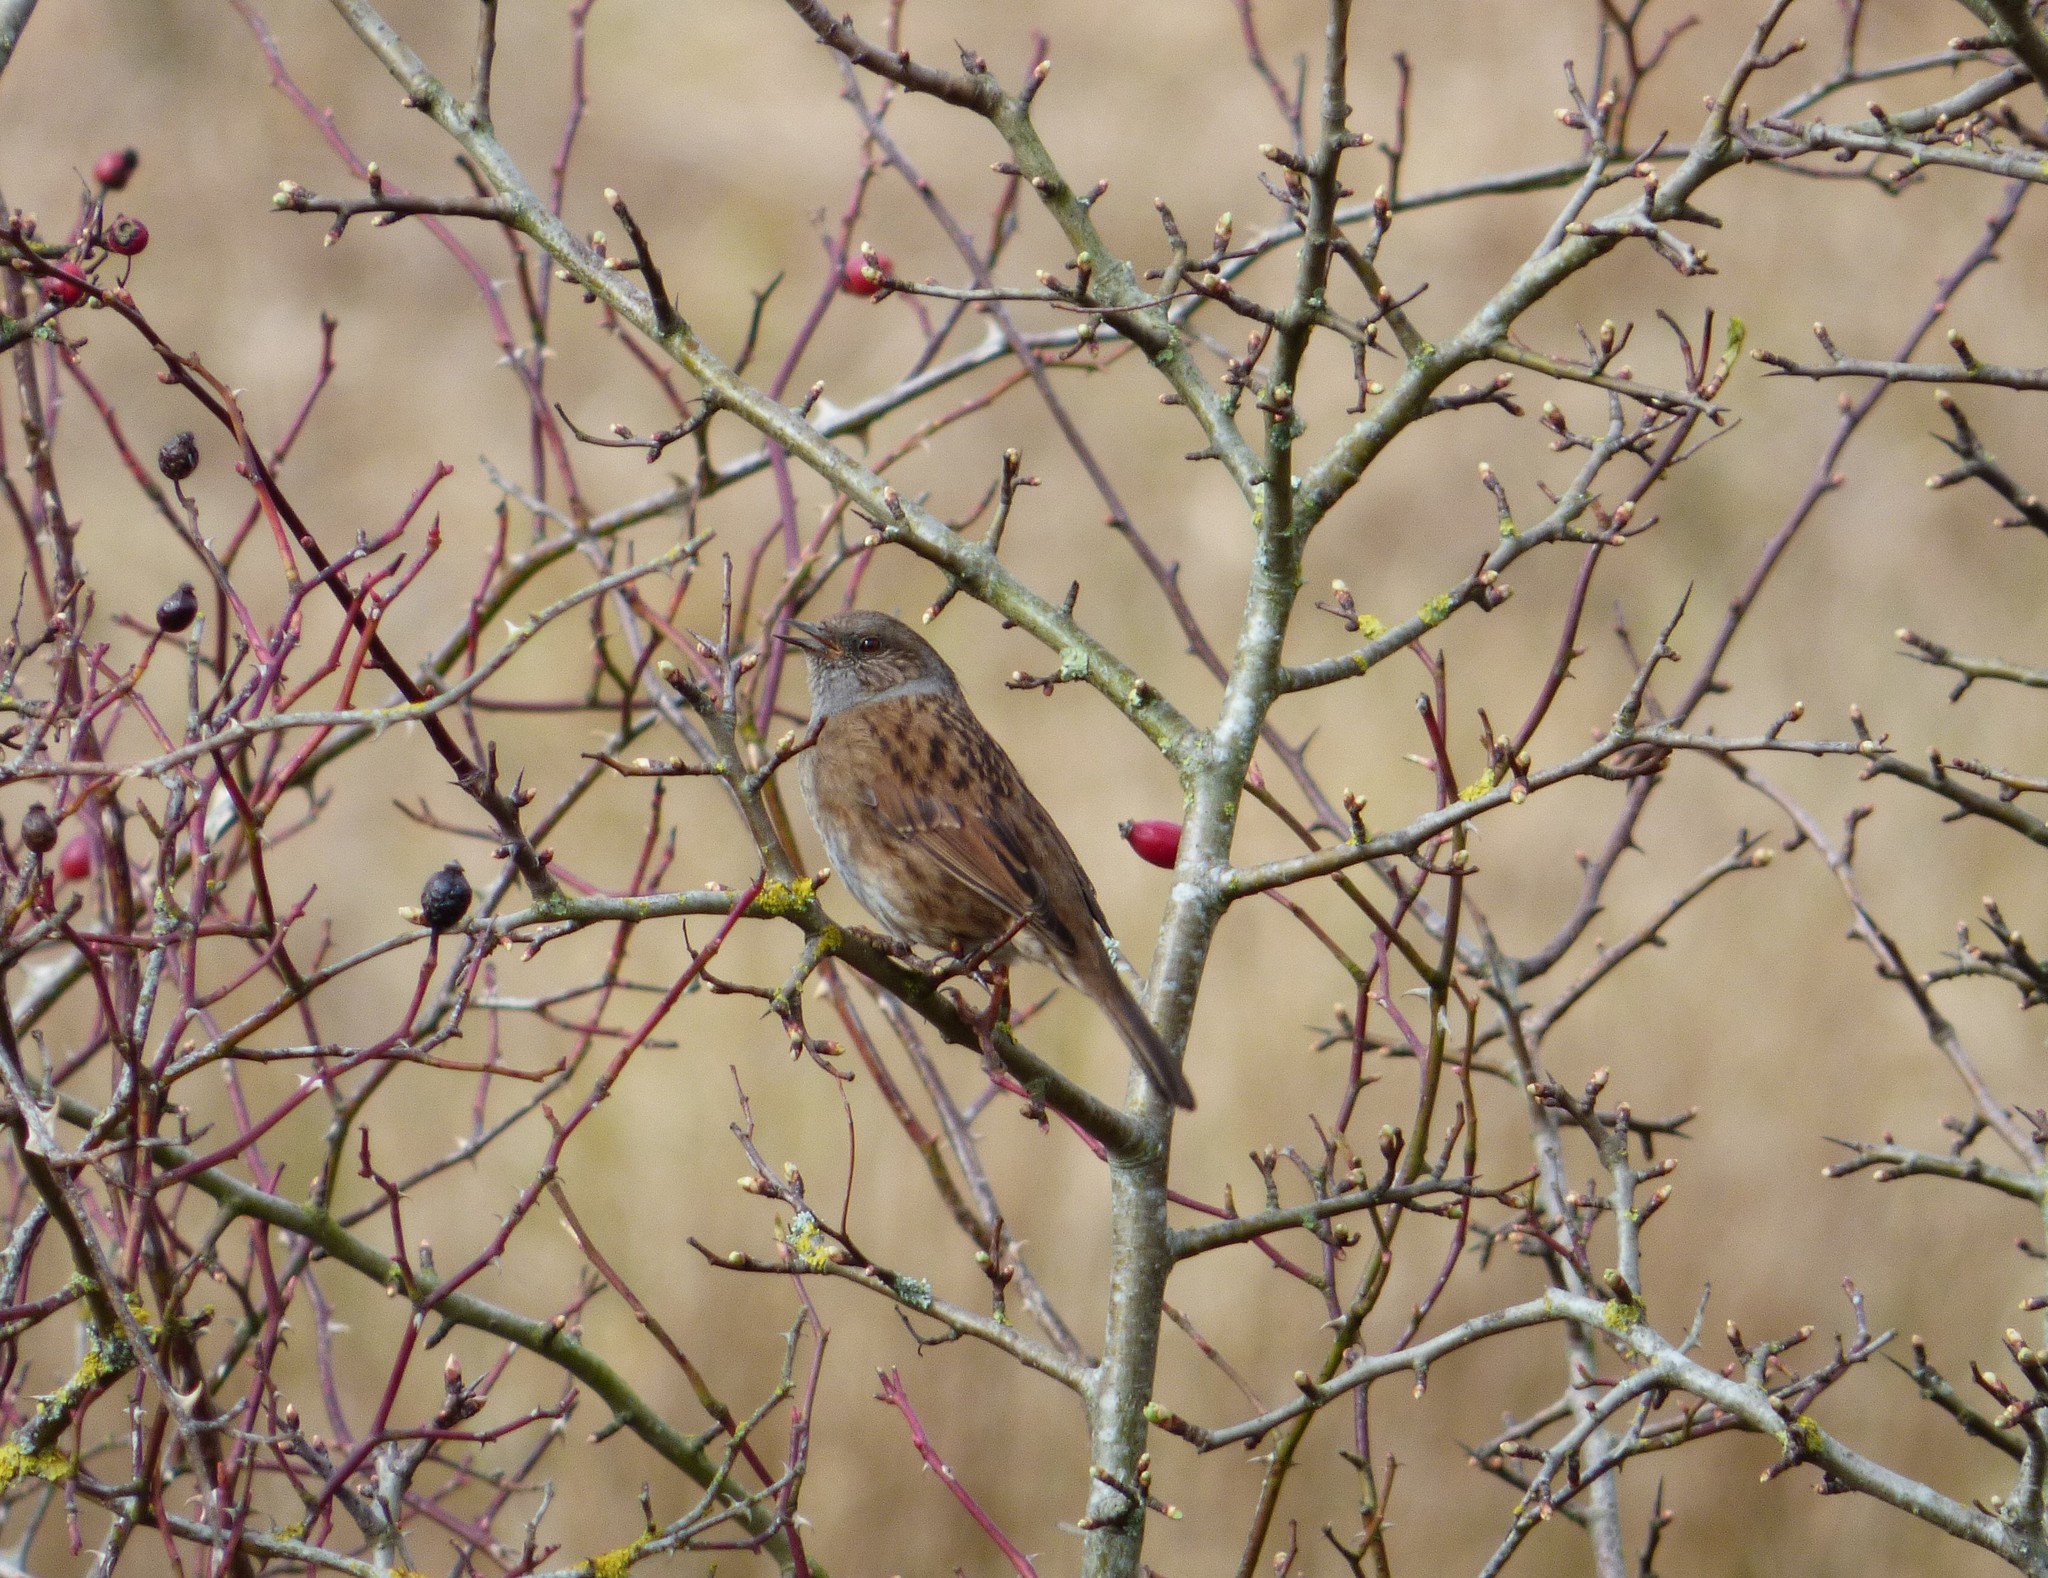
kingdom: Animalia
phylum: Chordata
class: Aves
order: Passeriformes
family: Prunellidae
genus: Prunella
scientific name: Prunella modularis
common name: Dunnock
